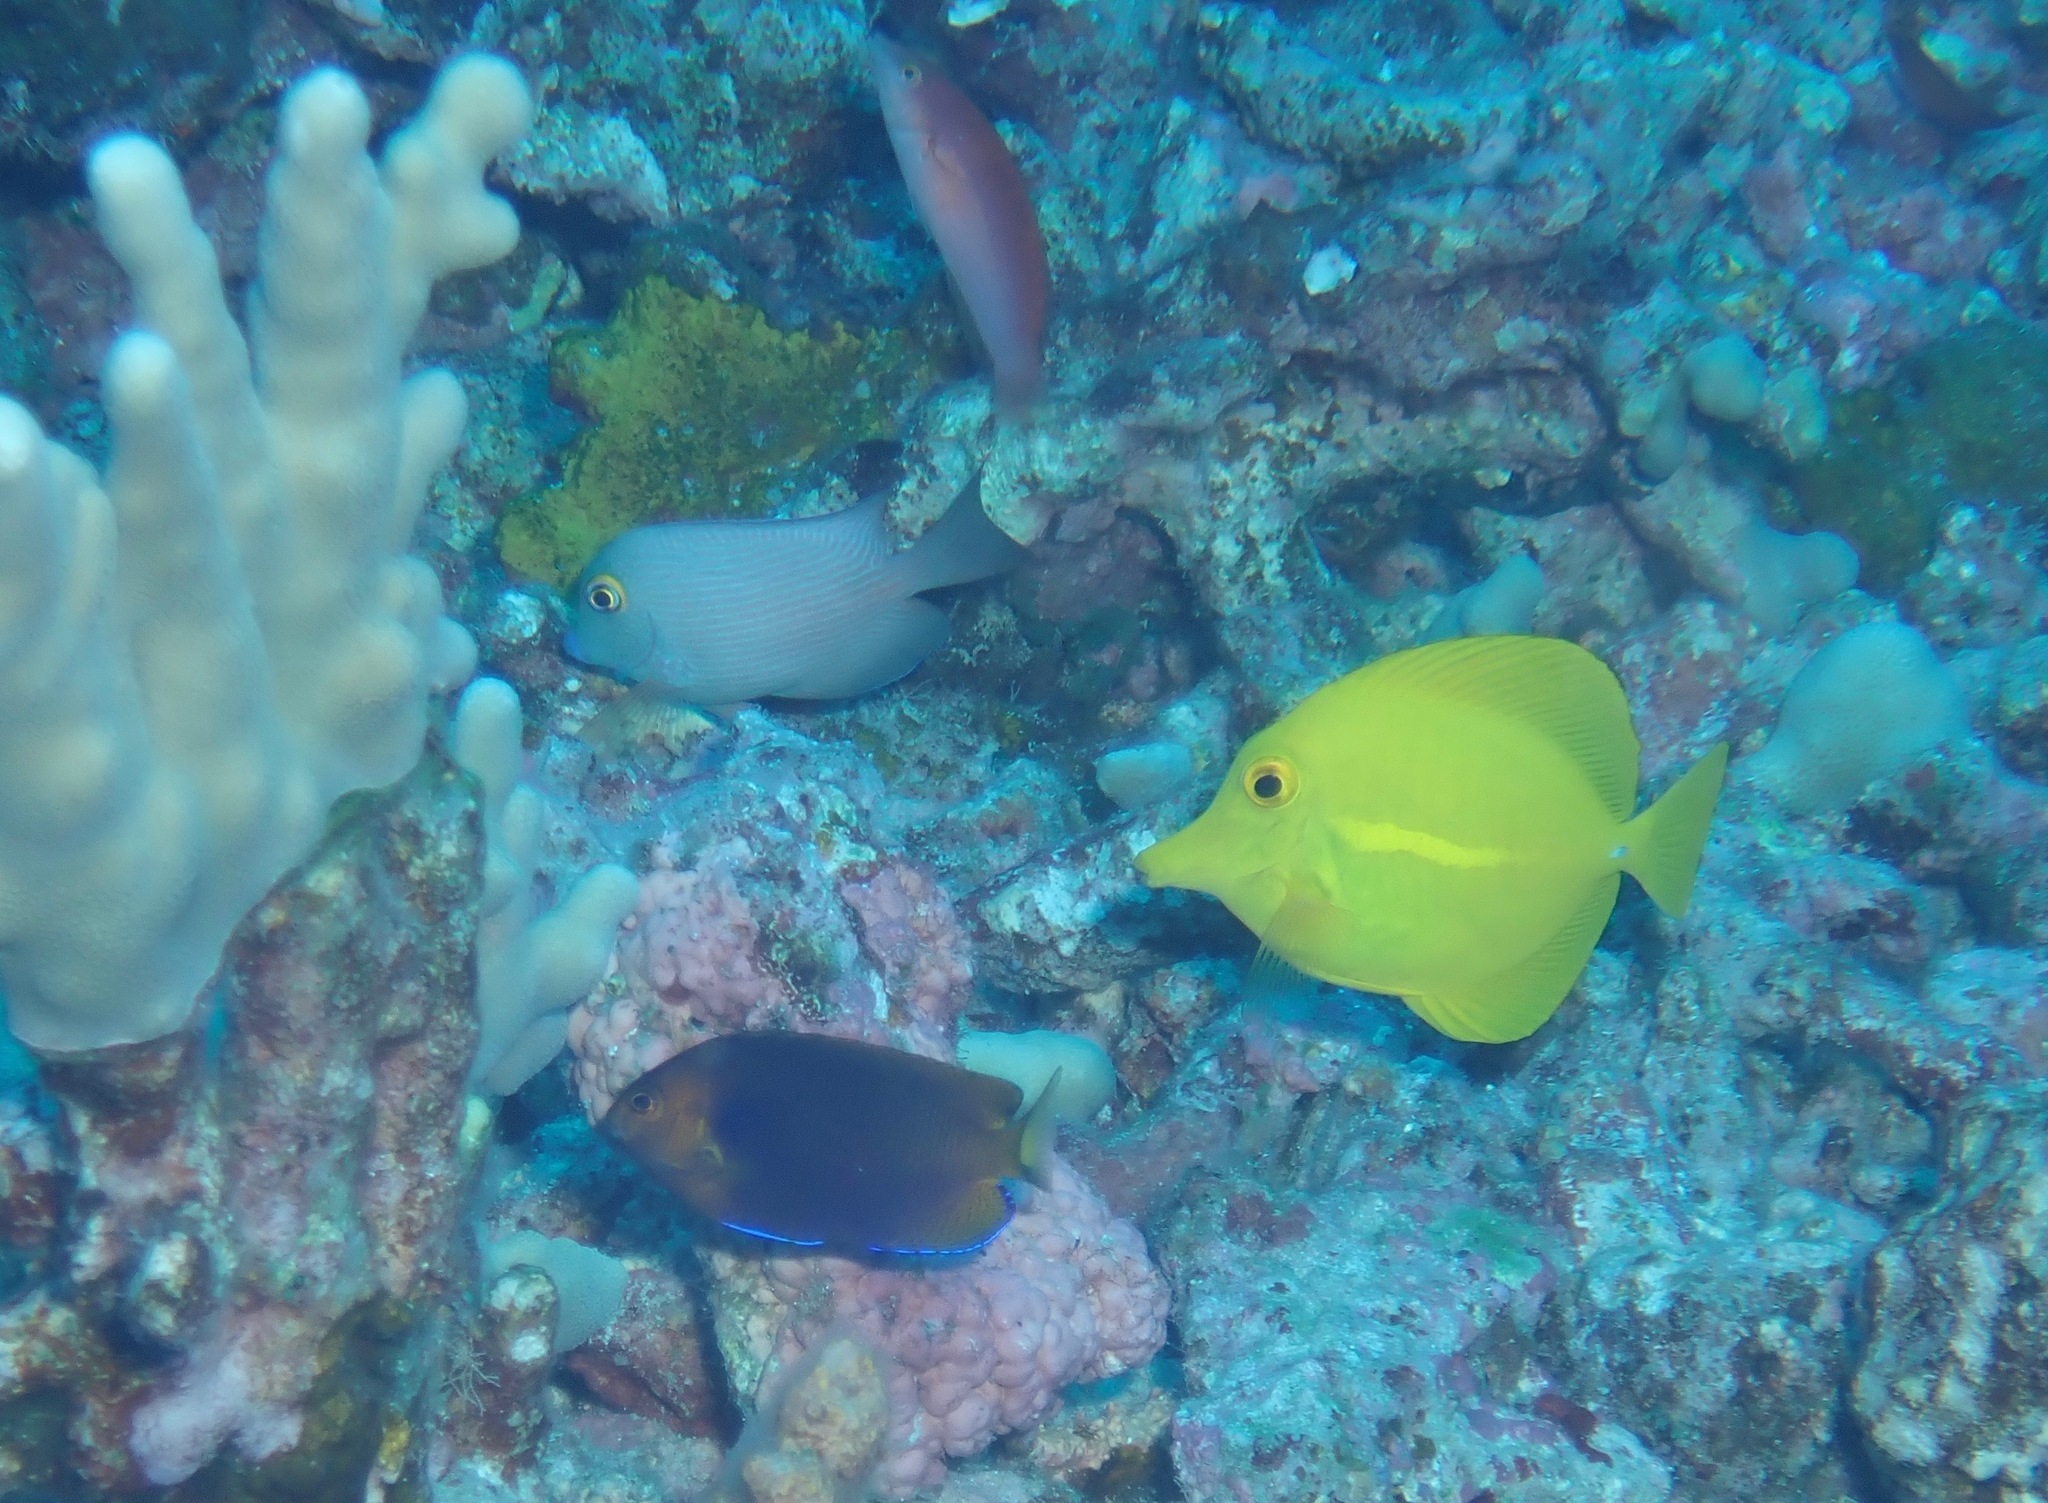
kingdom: Animalia
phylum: Chordata
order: Perciformes
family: Acanthuridae
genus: Zebrasoma
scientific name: Zebrasoma flavescens
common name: Yellow tang
